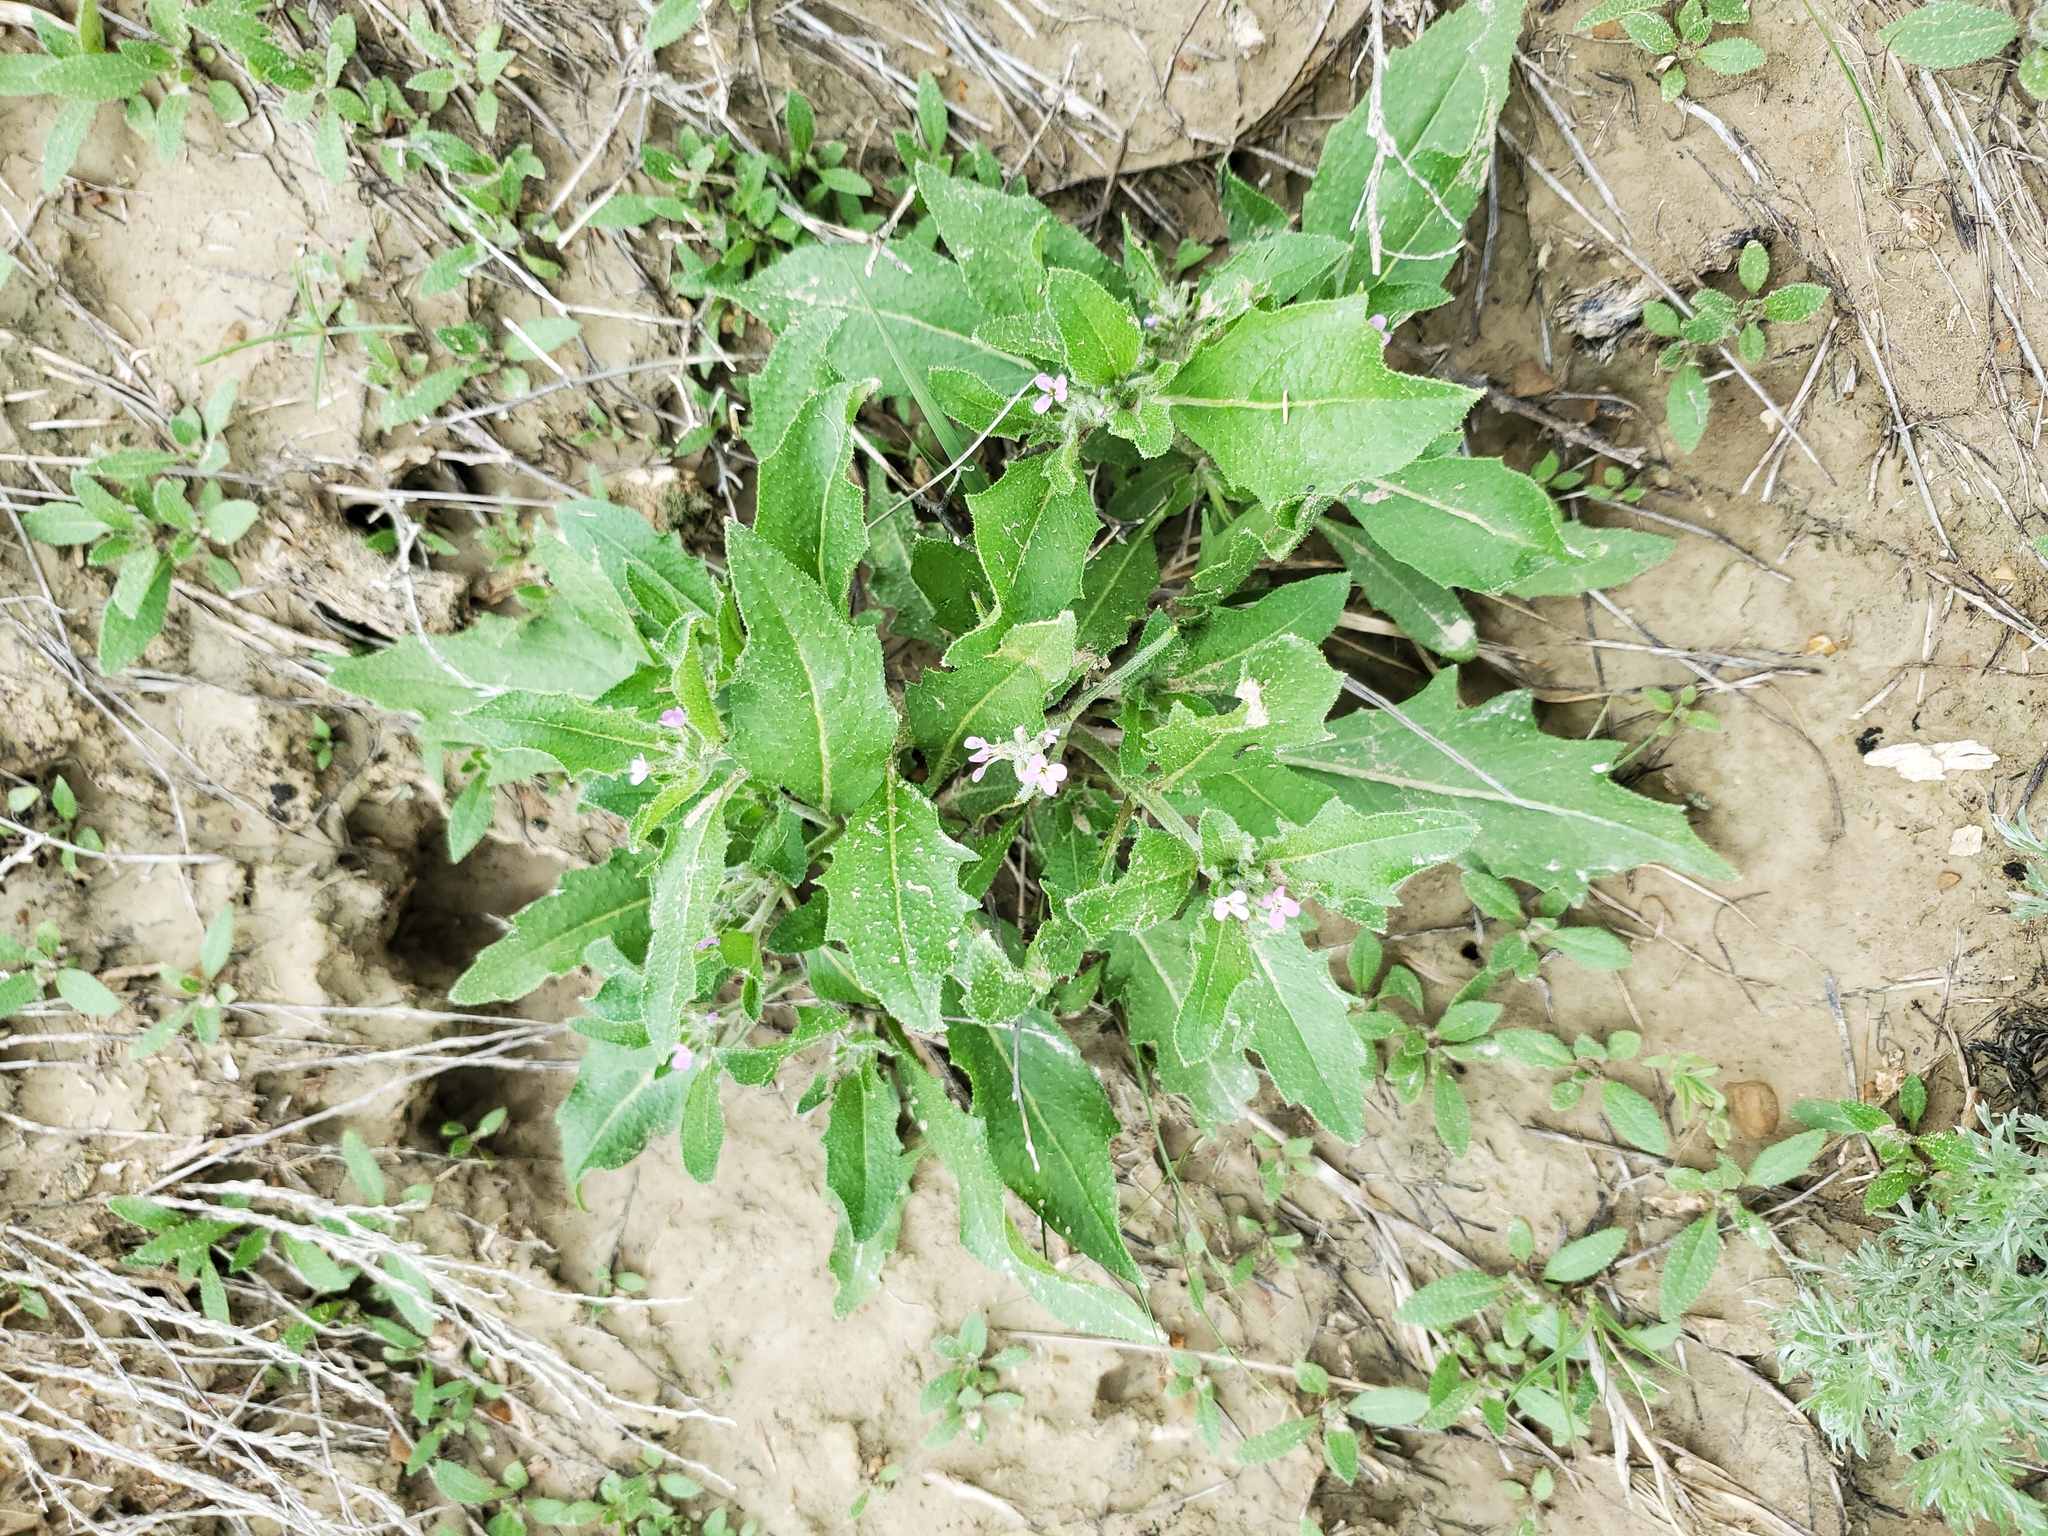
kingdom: Plantae
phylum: Tracheophyta
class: Magnoliopsida
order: Brassicales
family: Brassicaceae
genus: Strigosella
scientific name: Strigosella africana
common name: African mustard
